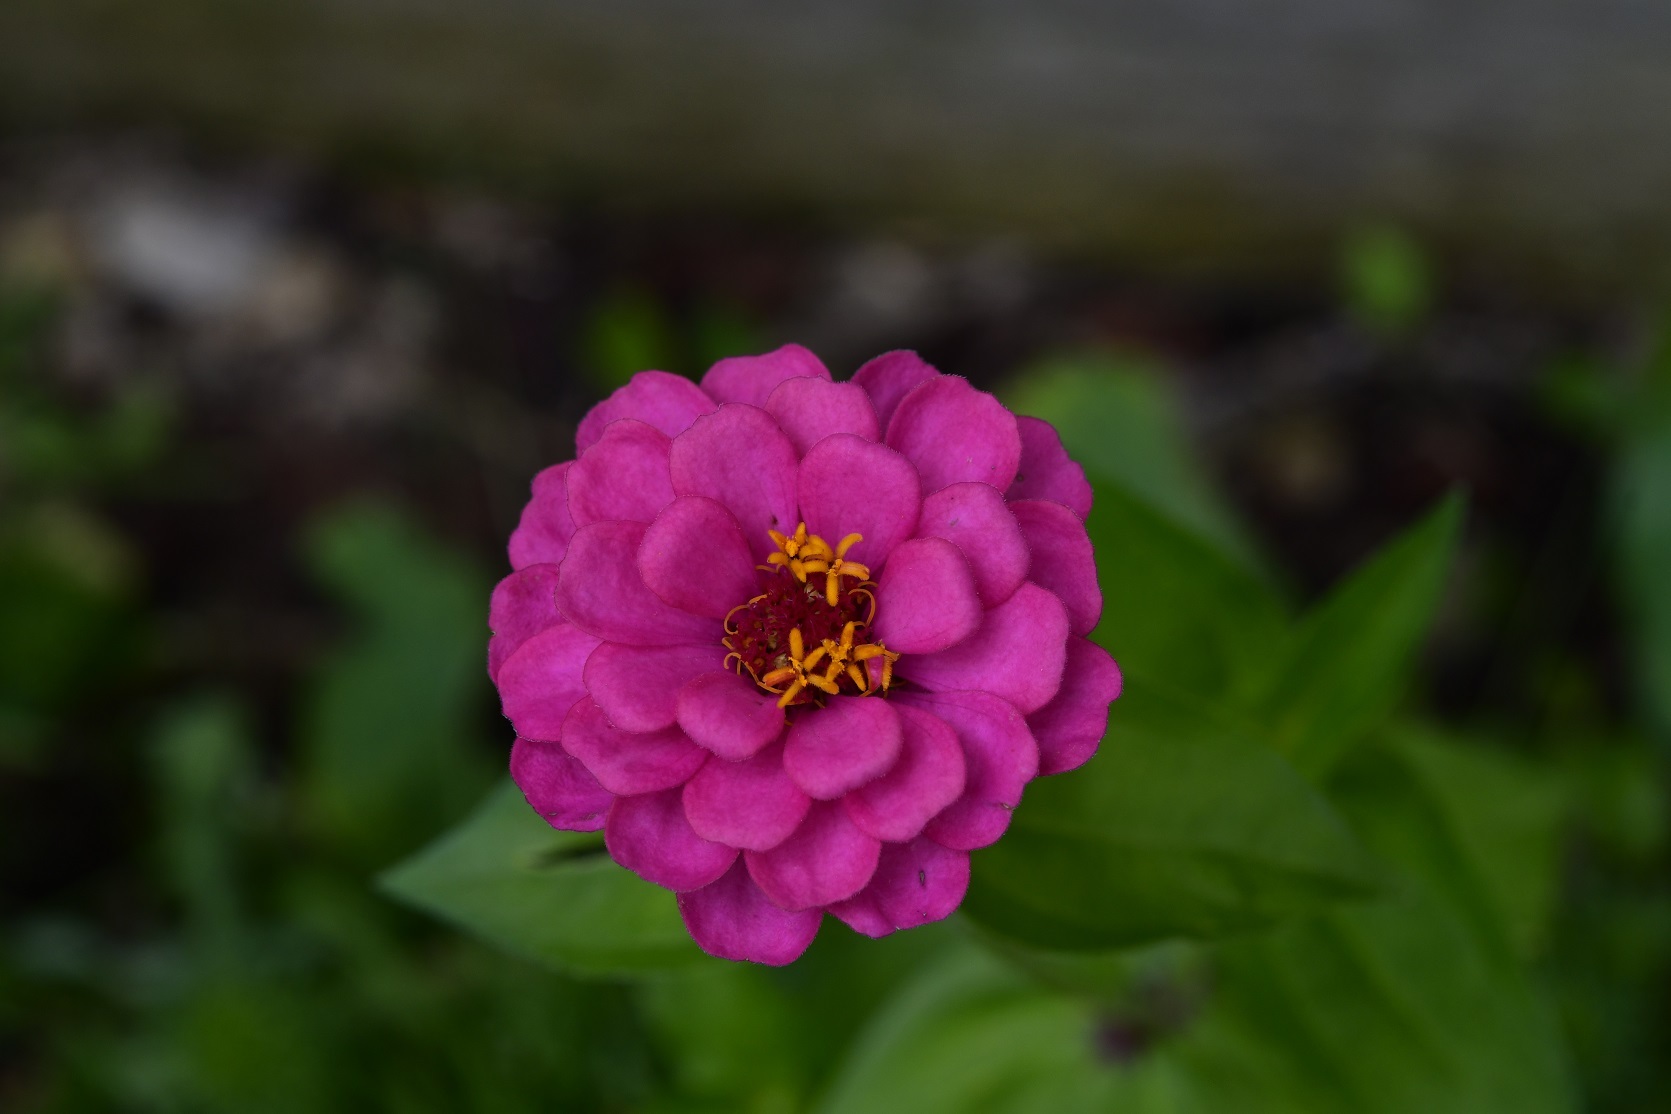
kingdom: Plantae
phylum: Tracheophyta
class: Magnoliopsida
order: Asterales
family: Asteraceae
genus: Zinnia
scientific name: Zinnia elegans
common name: Youth-and-age
